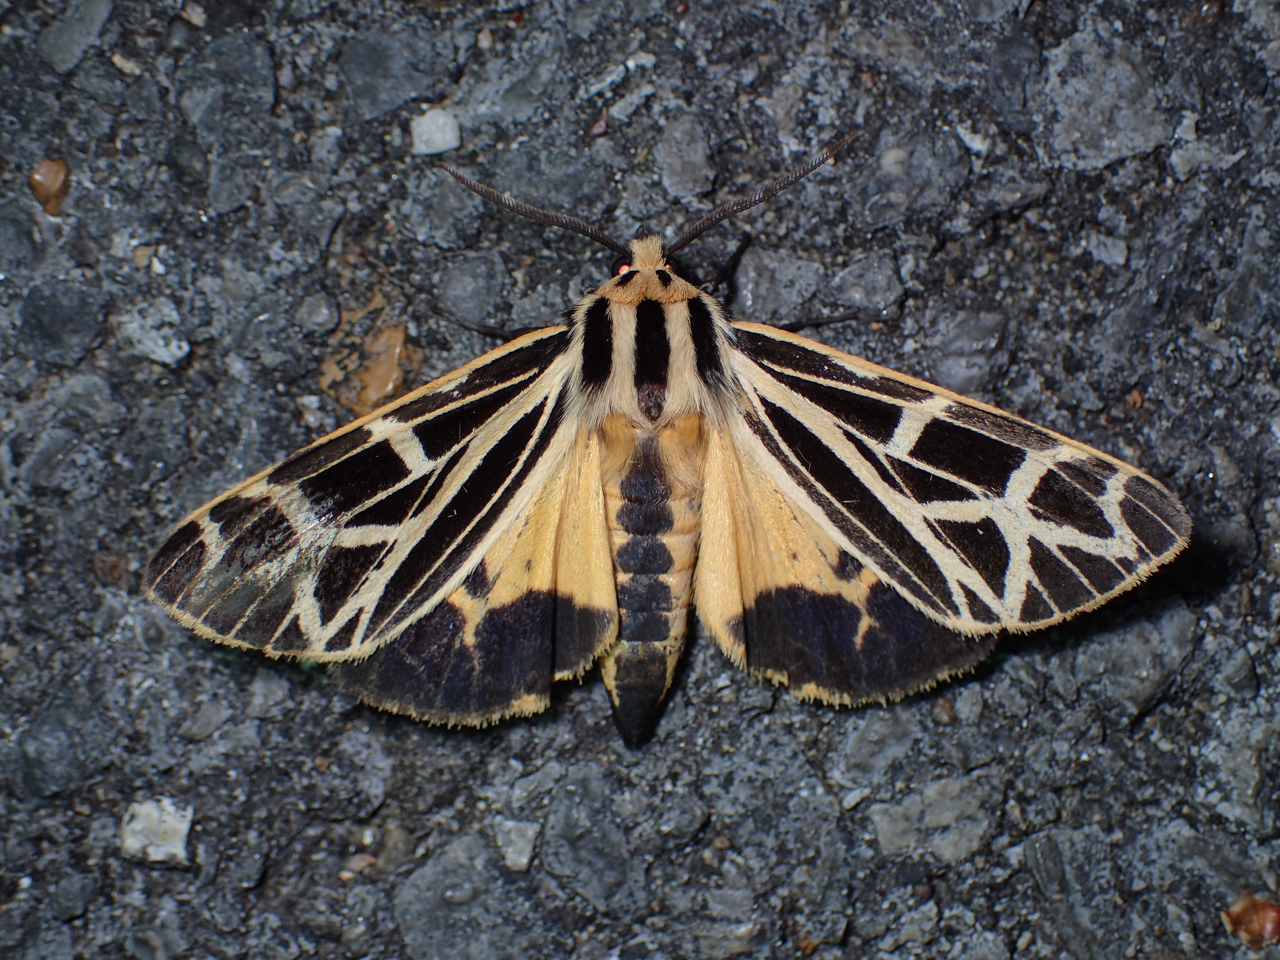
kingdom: Animalia
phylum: Arthropoda
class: Insecta
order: Lepidoptera
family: Erebidae
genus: Apantesis
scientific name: Apantesis
